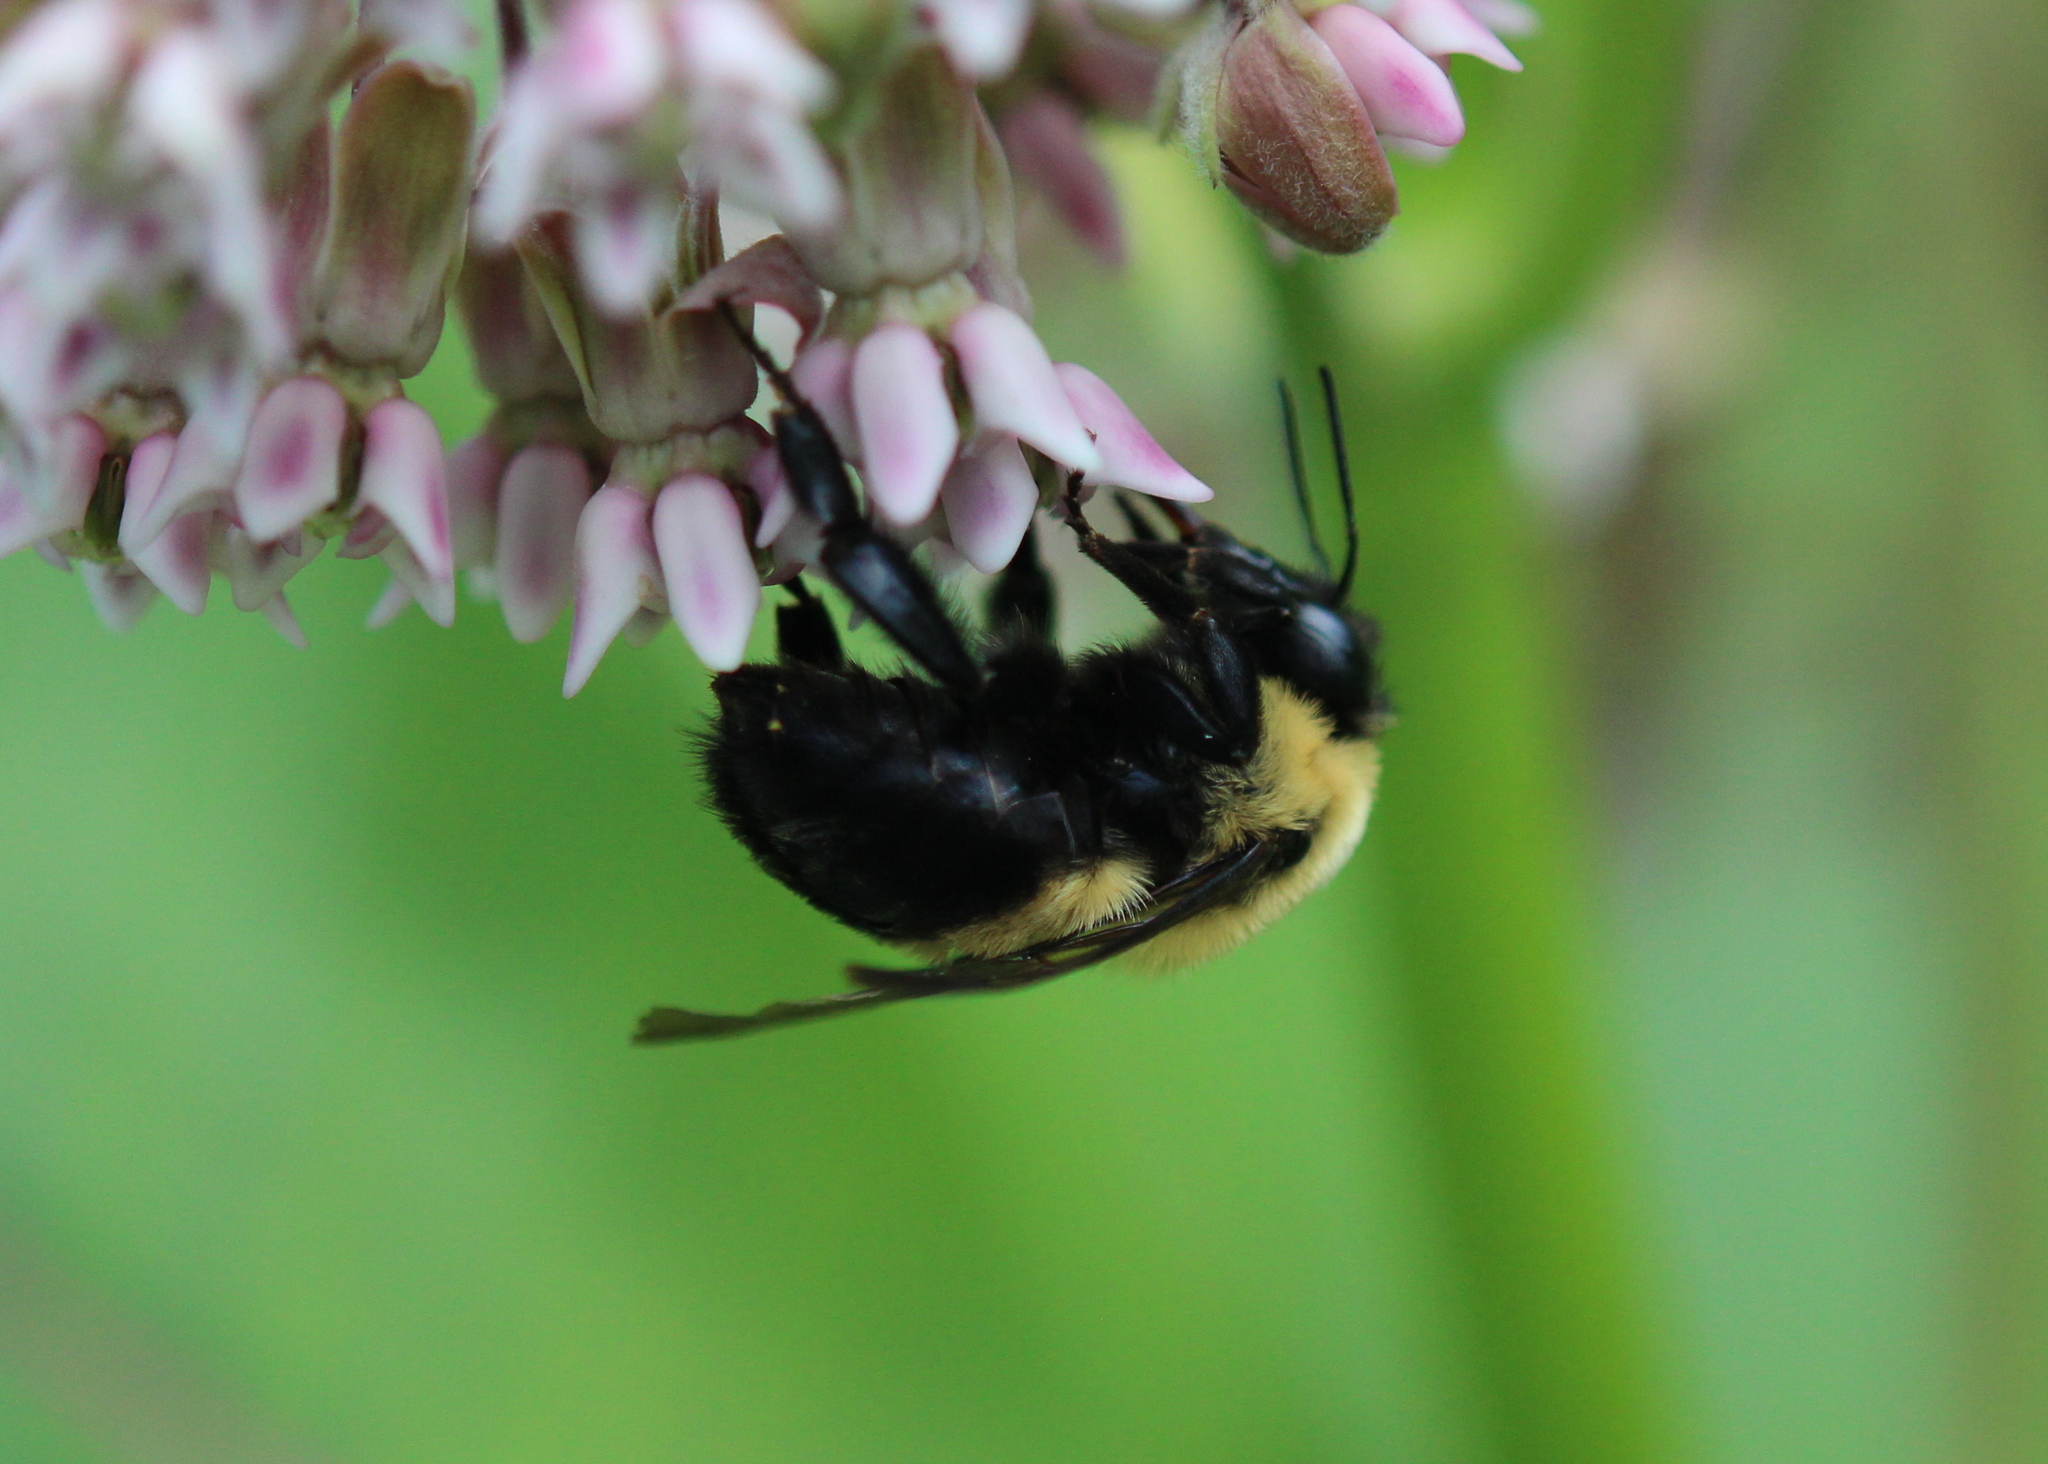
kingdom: Animalia
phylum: Arthropoda
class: Insecta
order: Hymenoptera
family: Apidae
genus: Bombus
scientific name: Bombus griseocollis
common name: Brown-belted bumble bee
